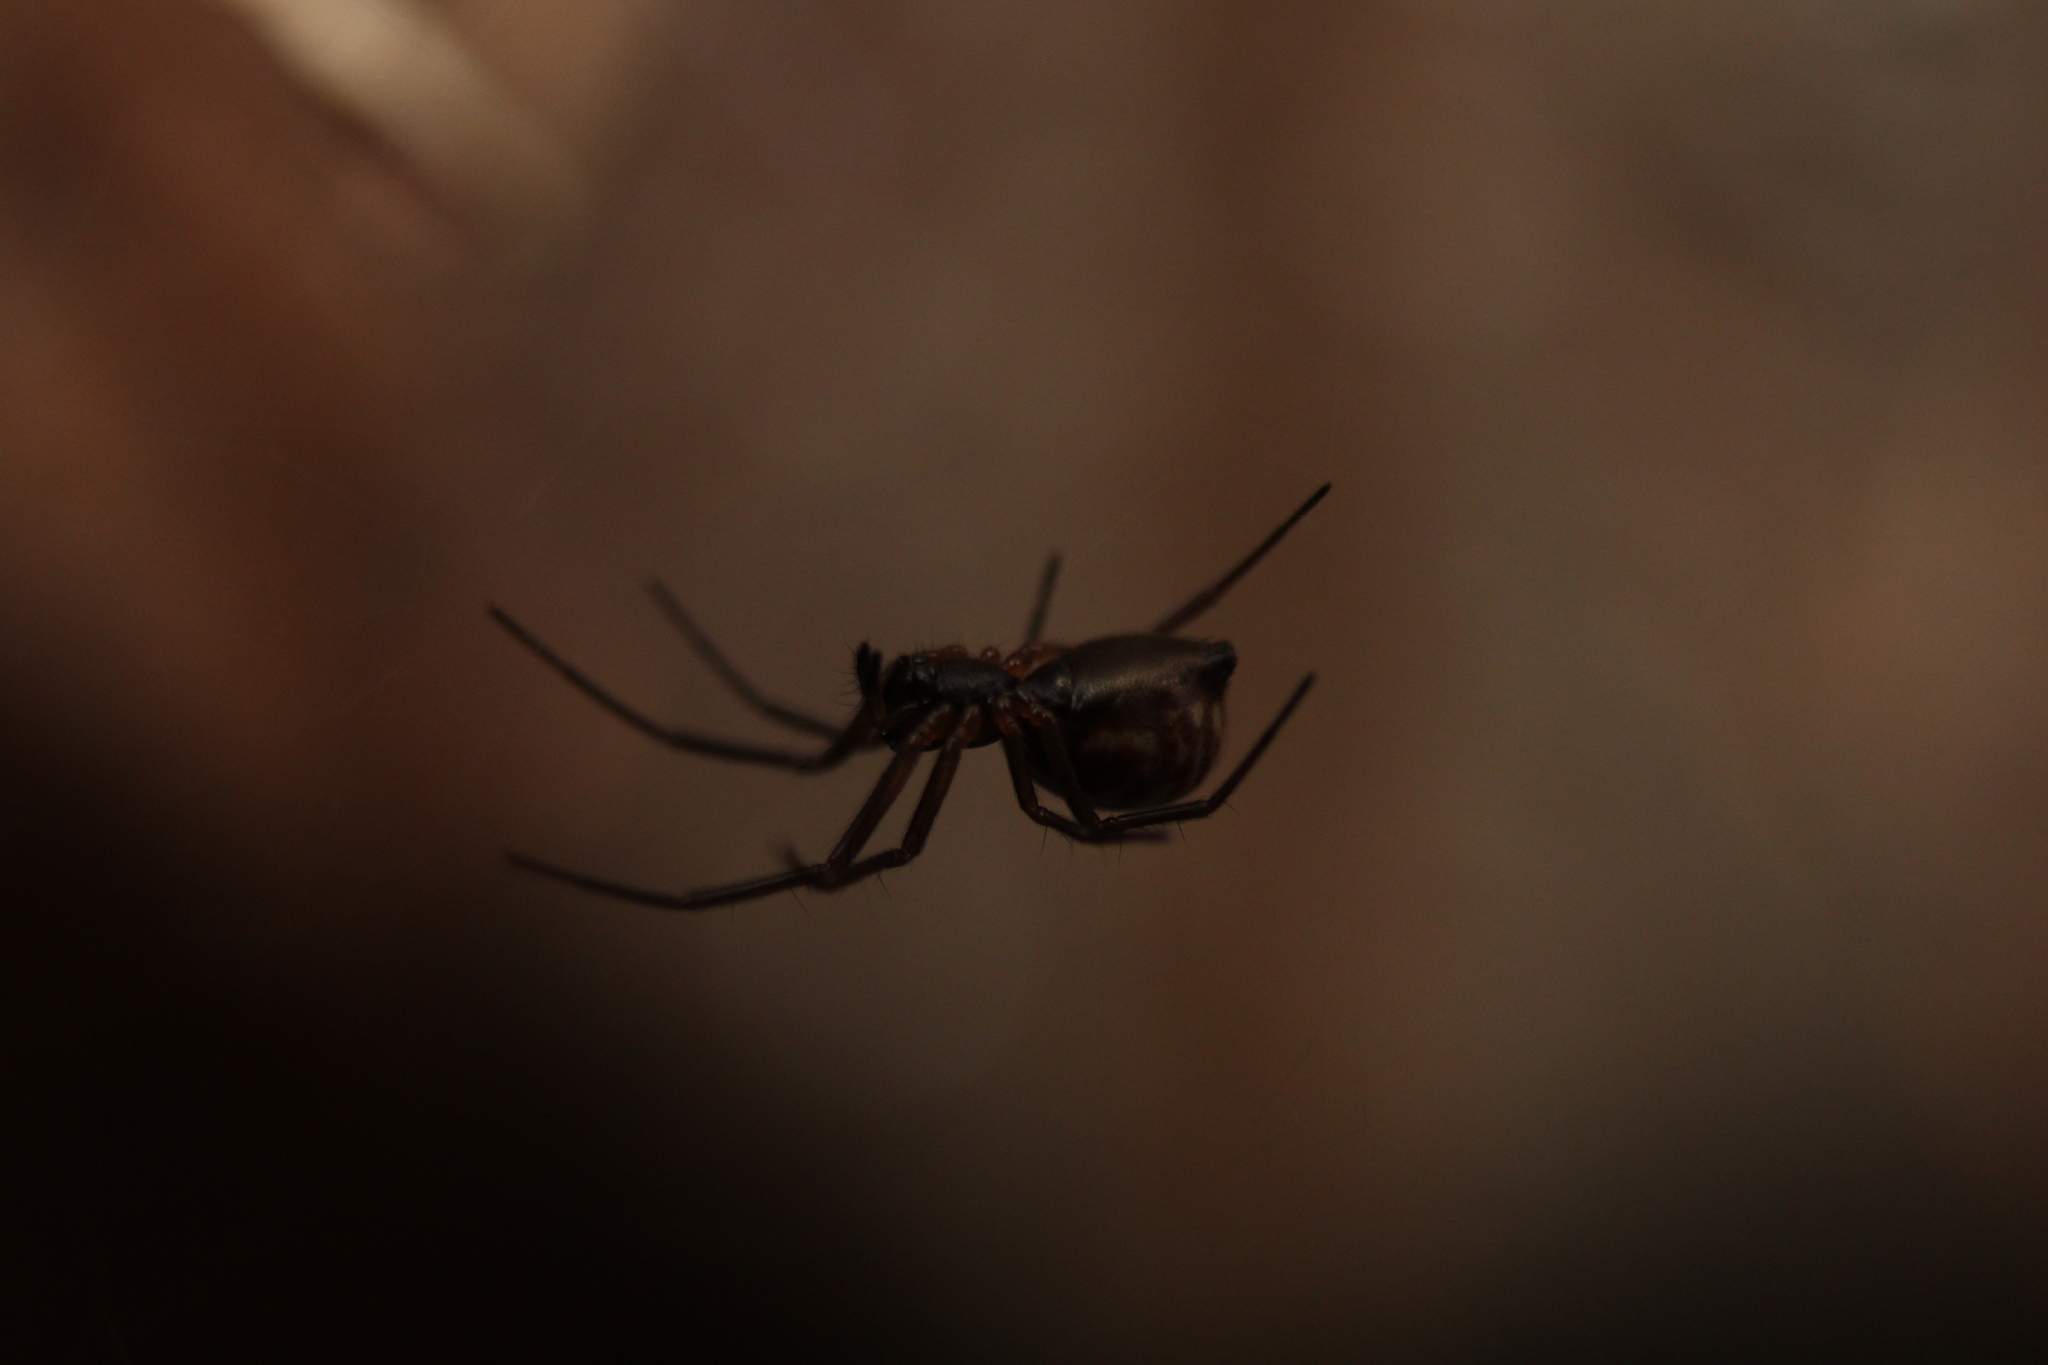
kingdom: Animalia
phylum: Arthropoda
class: Arachnida
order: Araneae
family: Linyphiidae
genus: Frontinella
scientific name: Frontinella pyramitela
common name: Bowl-and-doily spider
